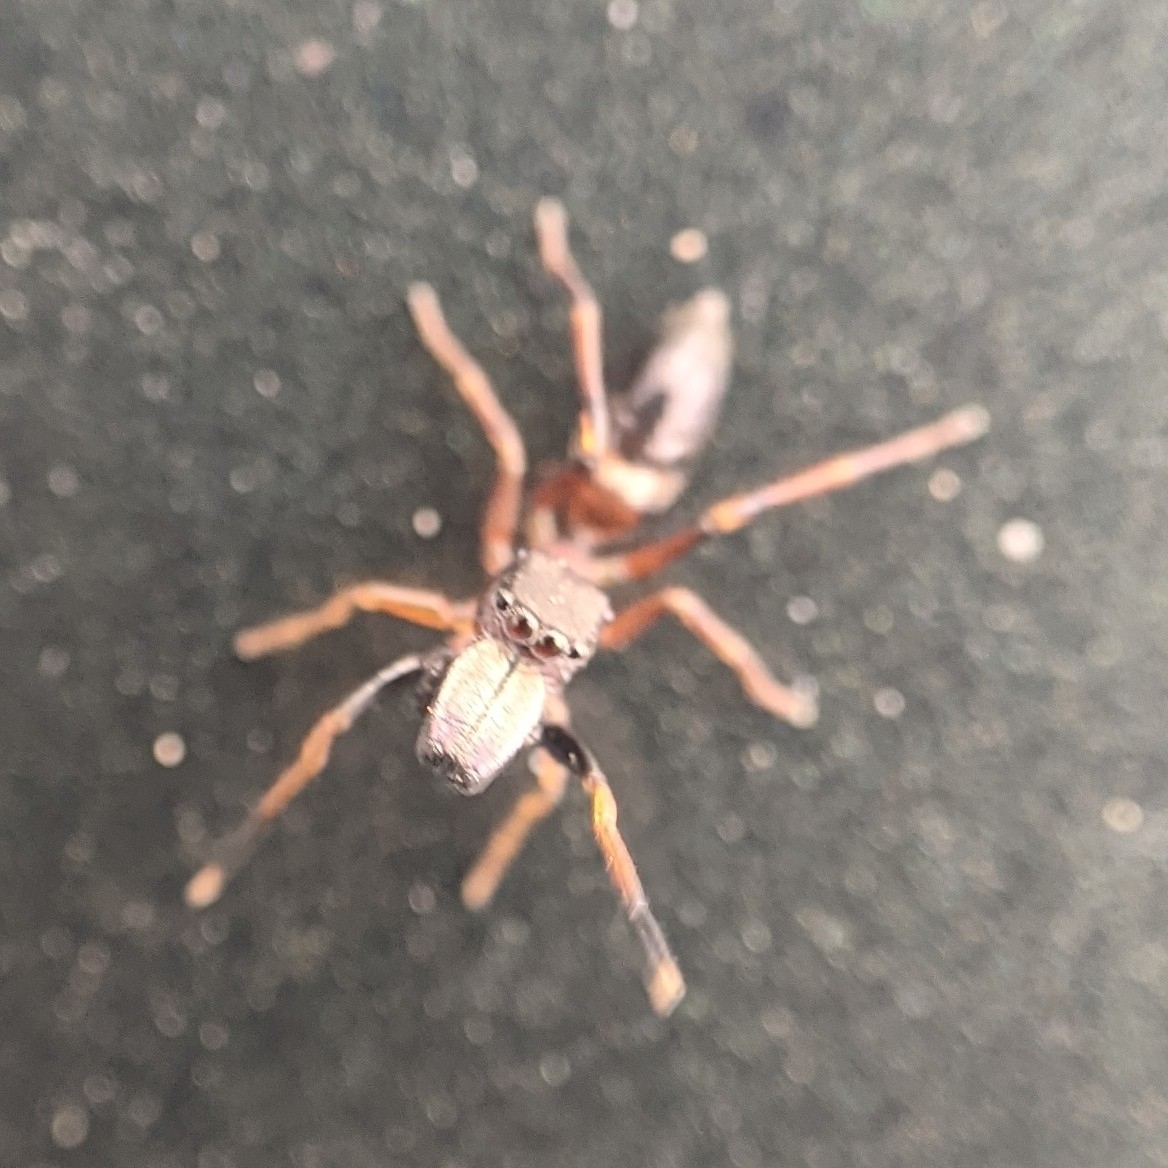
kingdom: Animalia
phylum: Arthropoda
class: Arachnida
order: Araneae
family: Salticidae
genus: Myrmarachne
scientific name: Myrmarachne formicaria
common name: Ant mimic jumping spider
